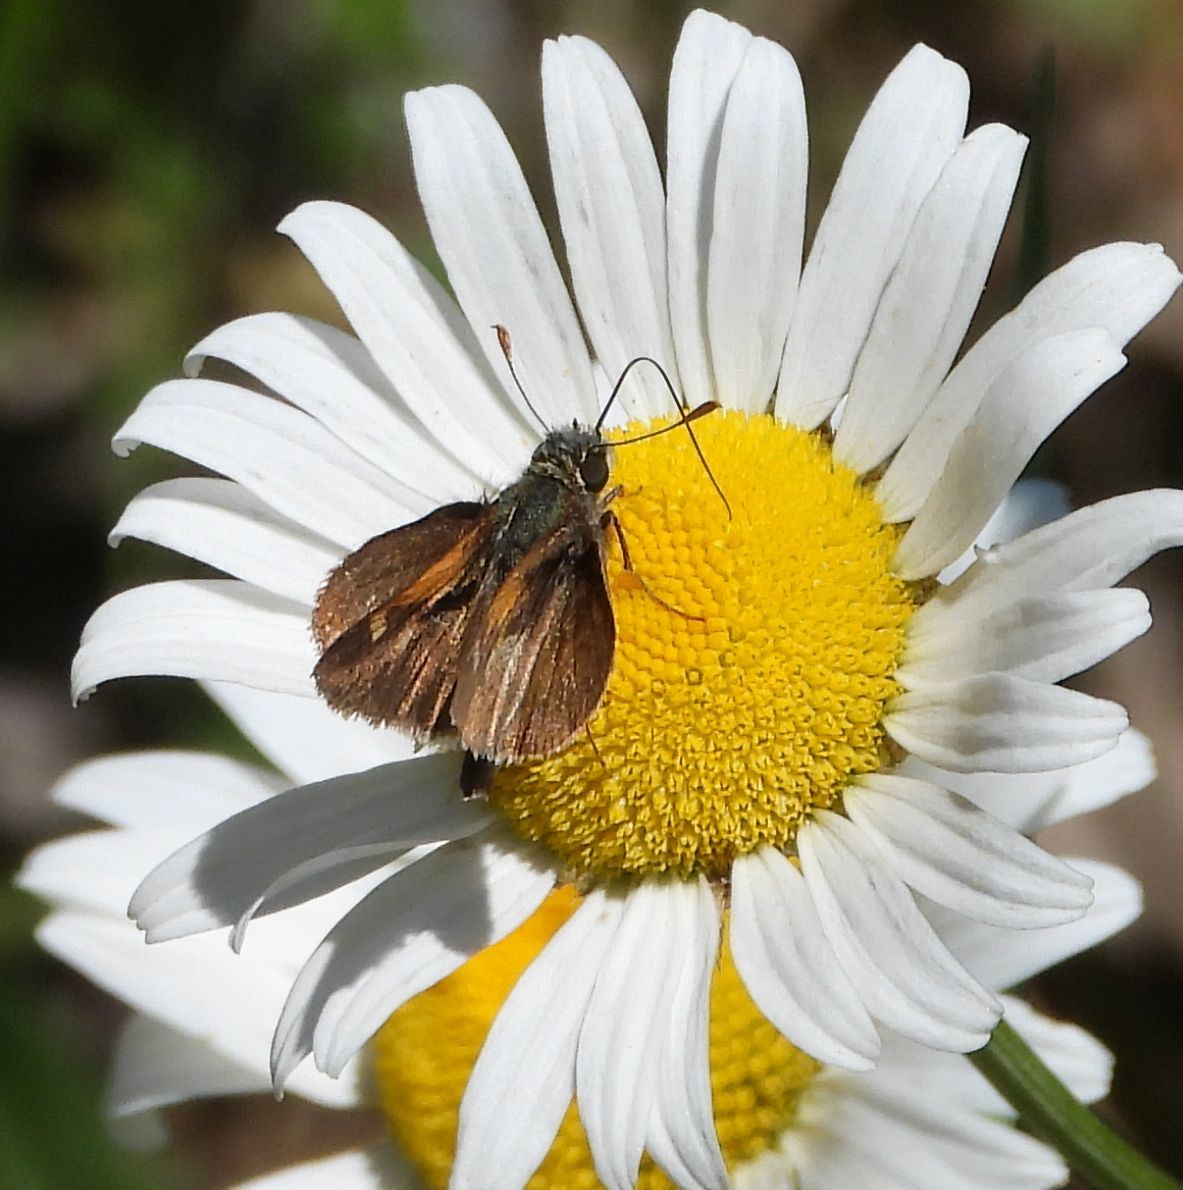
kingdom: Animalia
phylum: Arthropoda
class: Insecta
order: Lepidoptera
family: Hesperiidae
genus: Polites
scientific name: Polites themistocles
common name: Tawny-edged skipper
